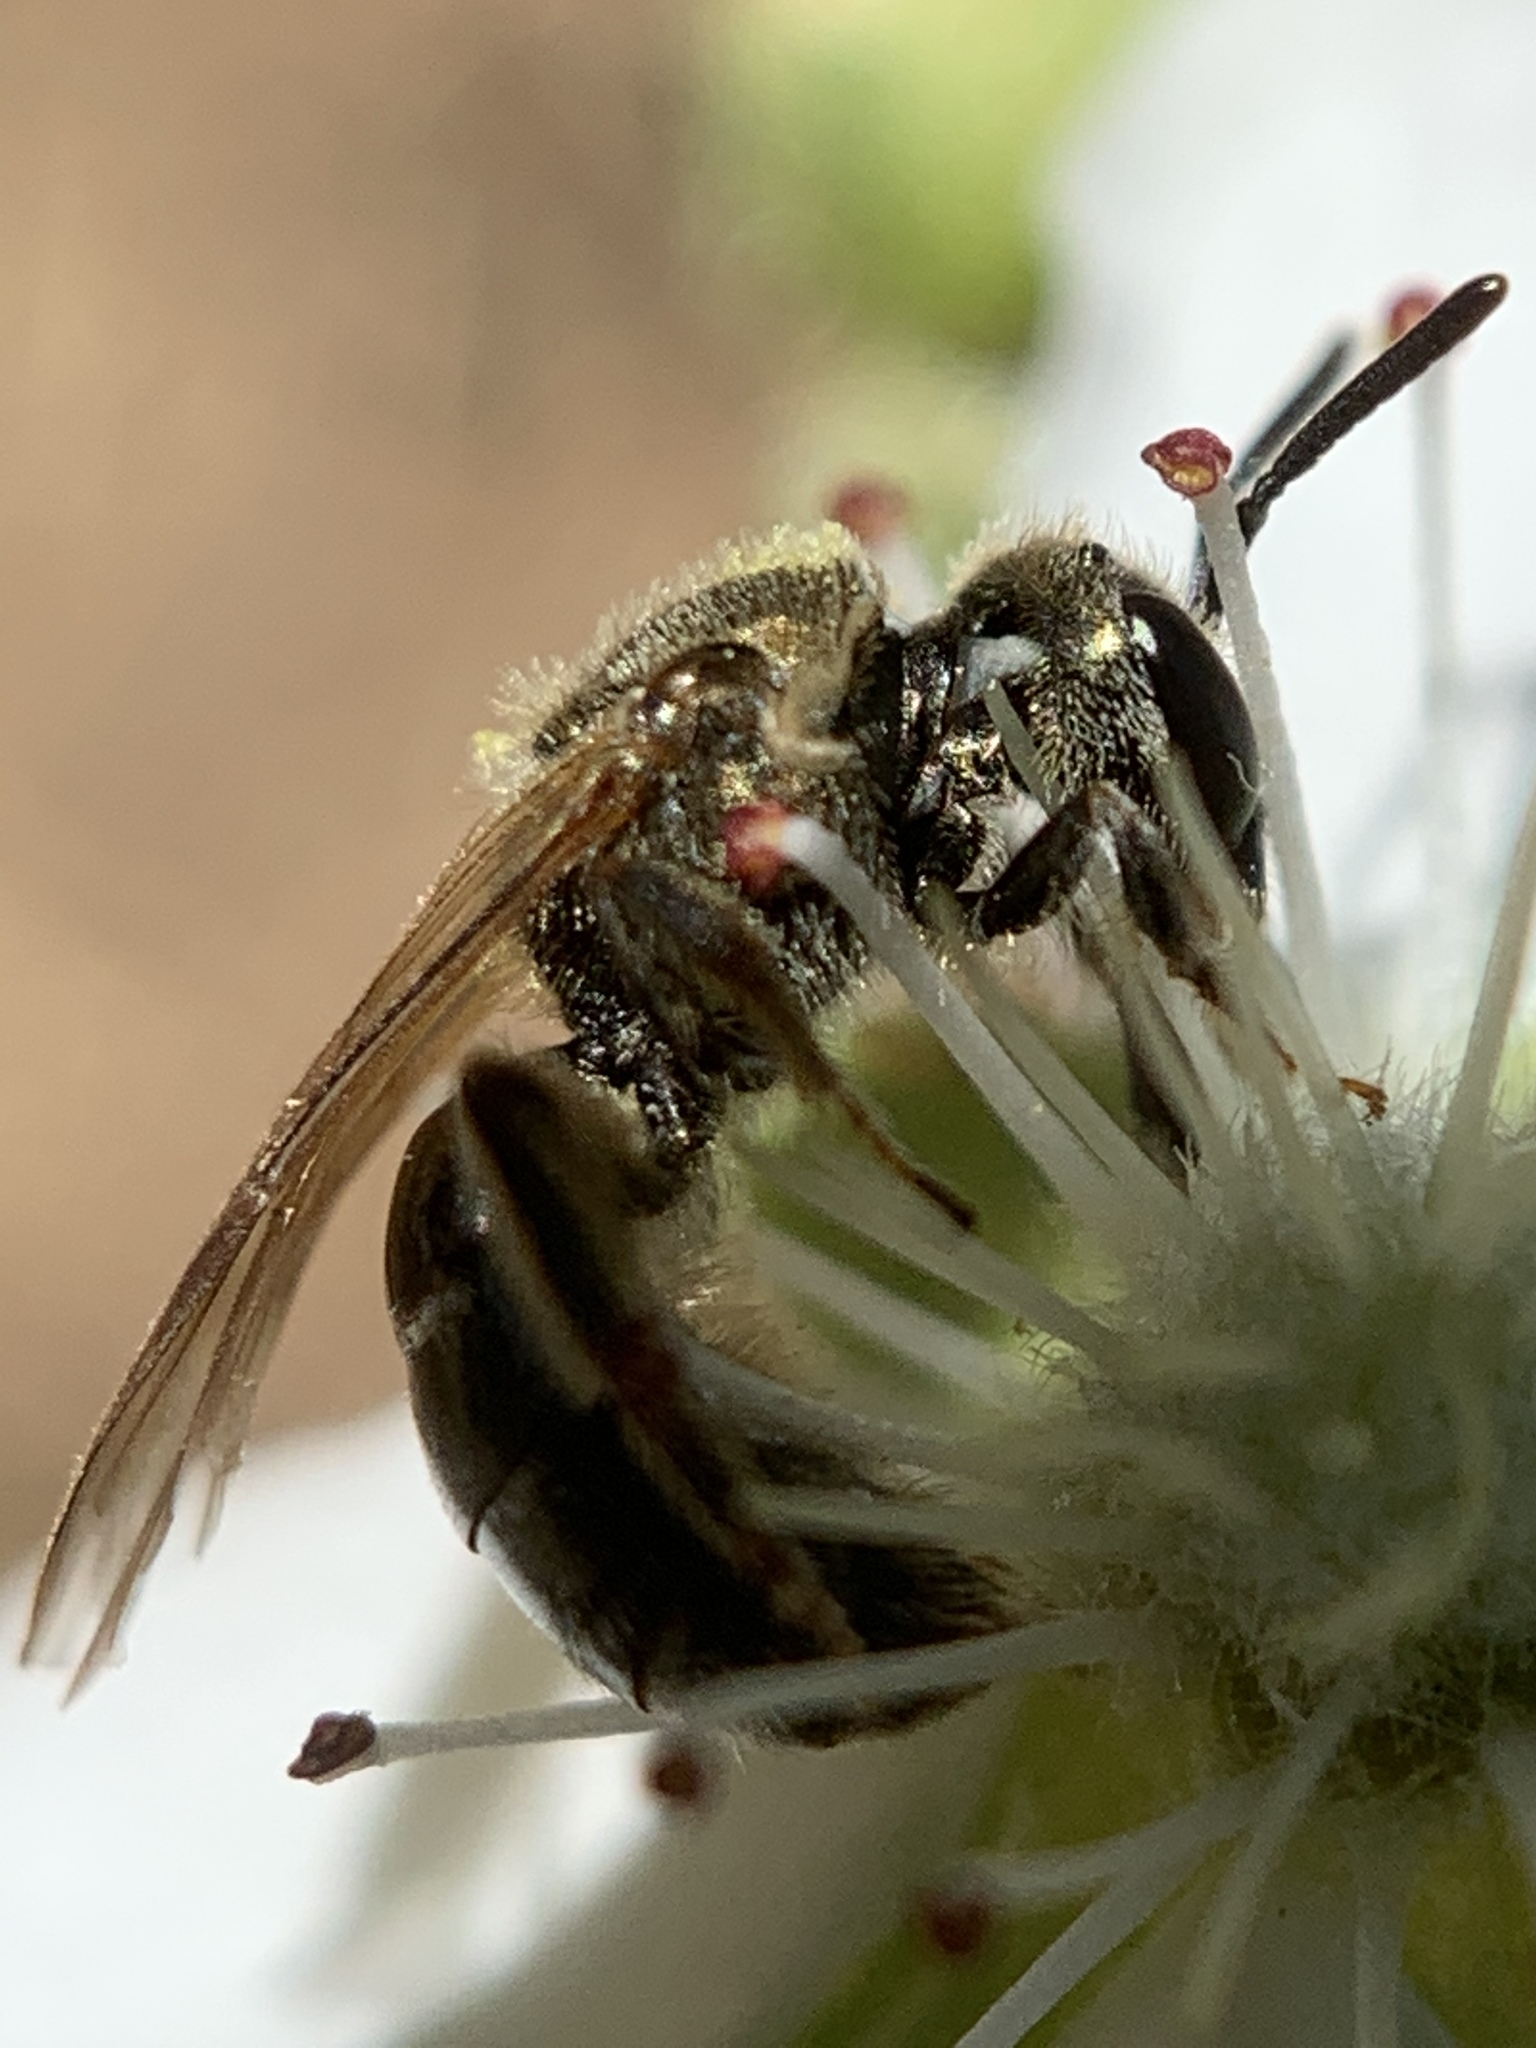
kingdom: Animalia
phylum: Arthropoda
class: Insecta
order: Hymenoptera
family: Halictidae
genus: Dialictus
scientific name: Dialictus
